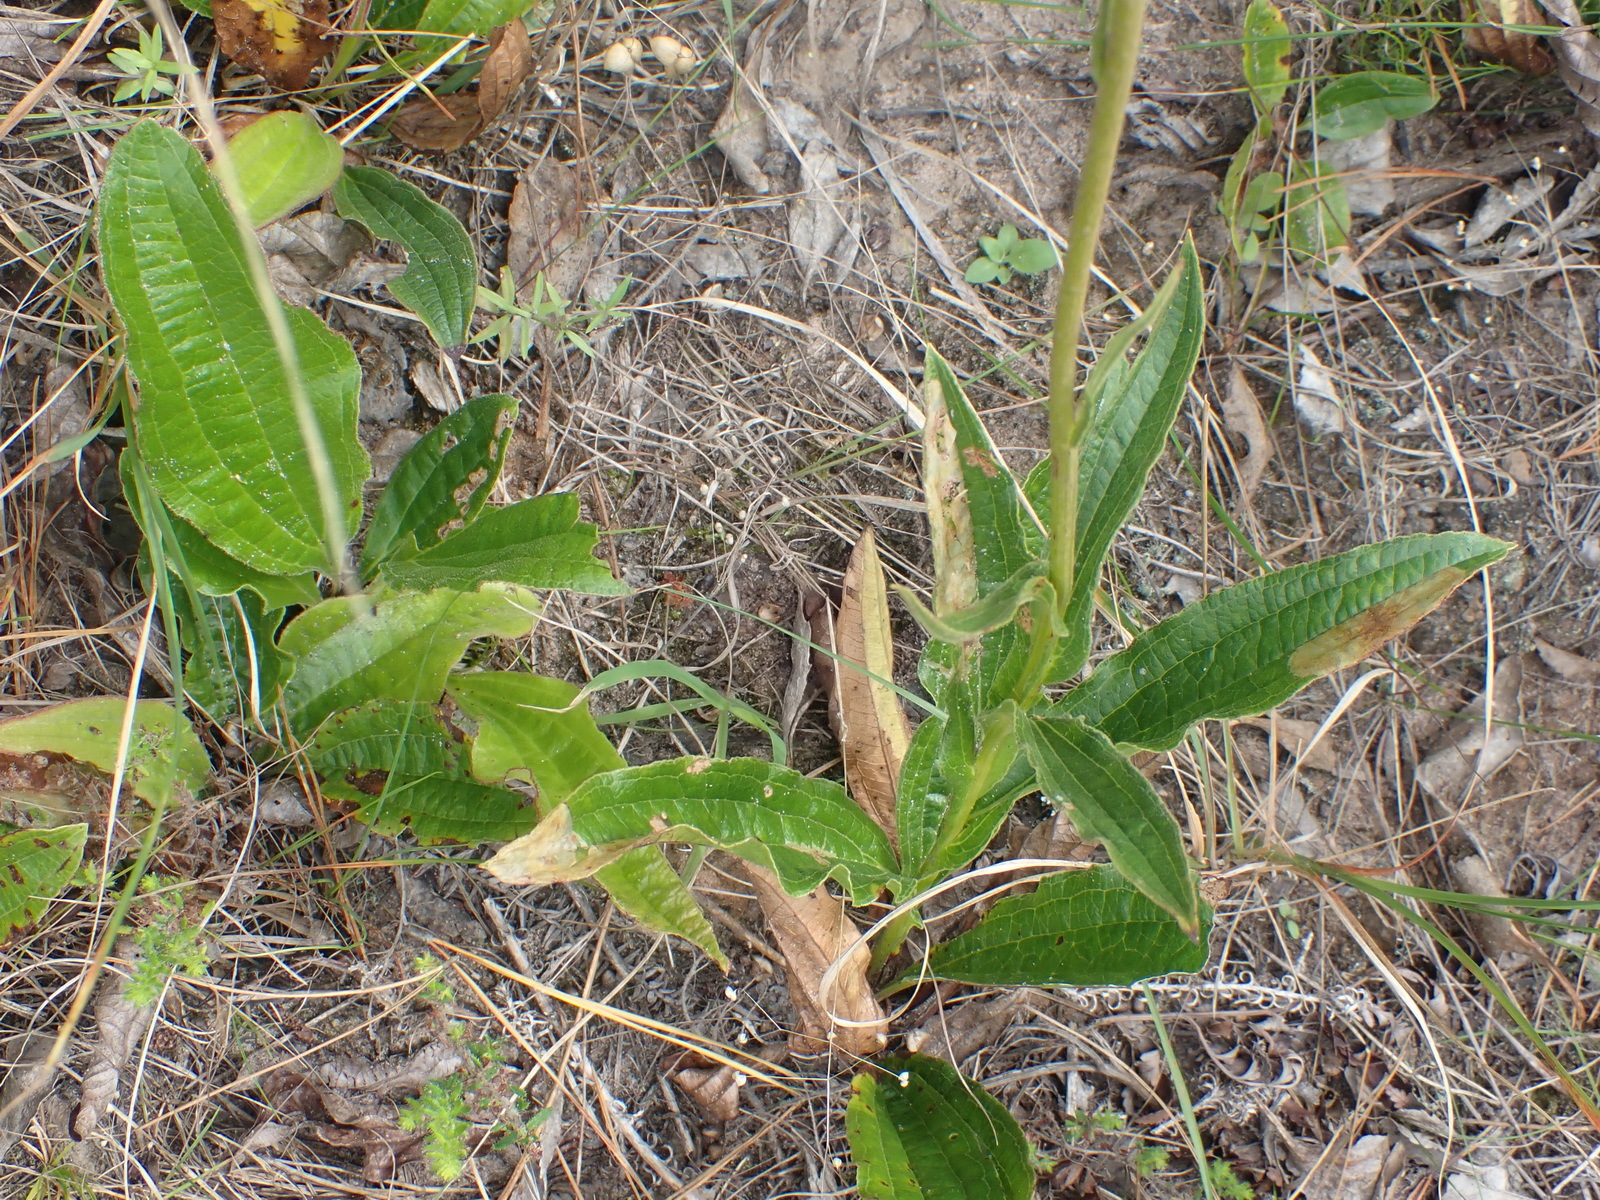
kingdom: Plantae
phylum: Tracheophyta
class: Magnoliopsida
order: Asterales
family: Asteraceae
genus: Helichrysum
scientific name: Helichrysum nudifolium
